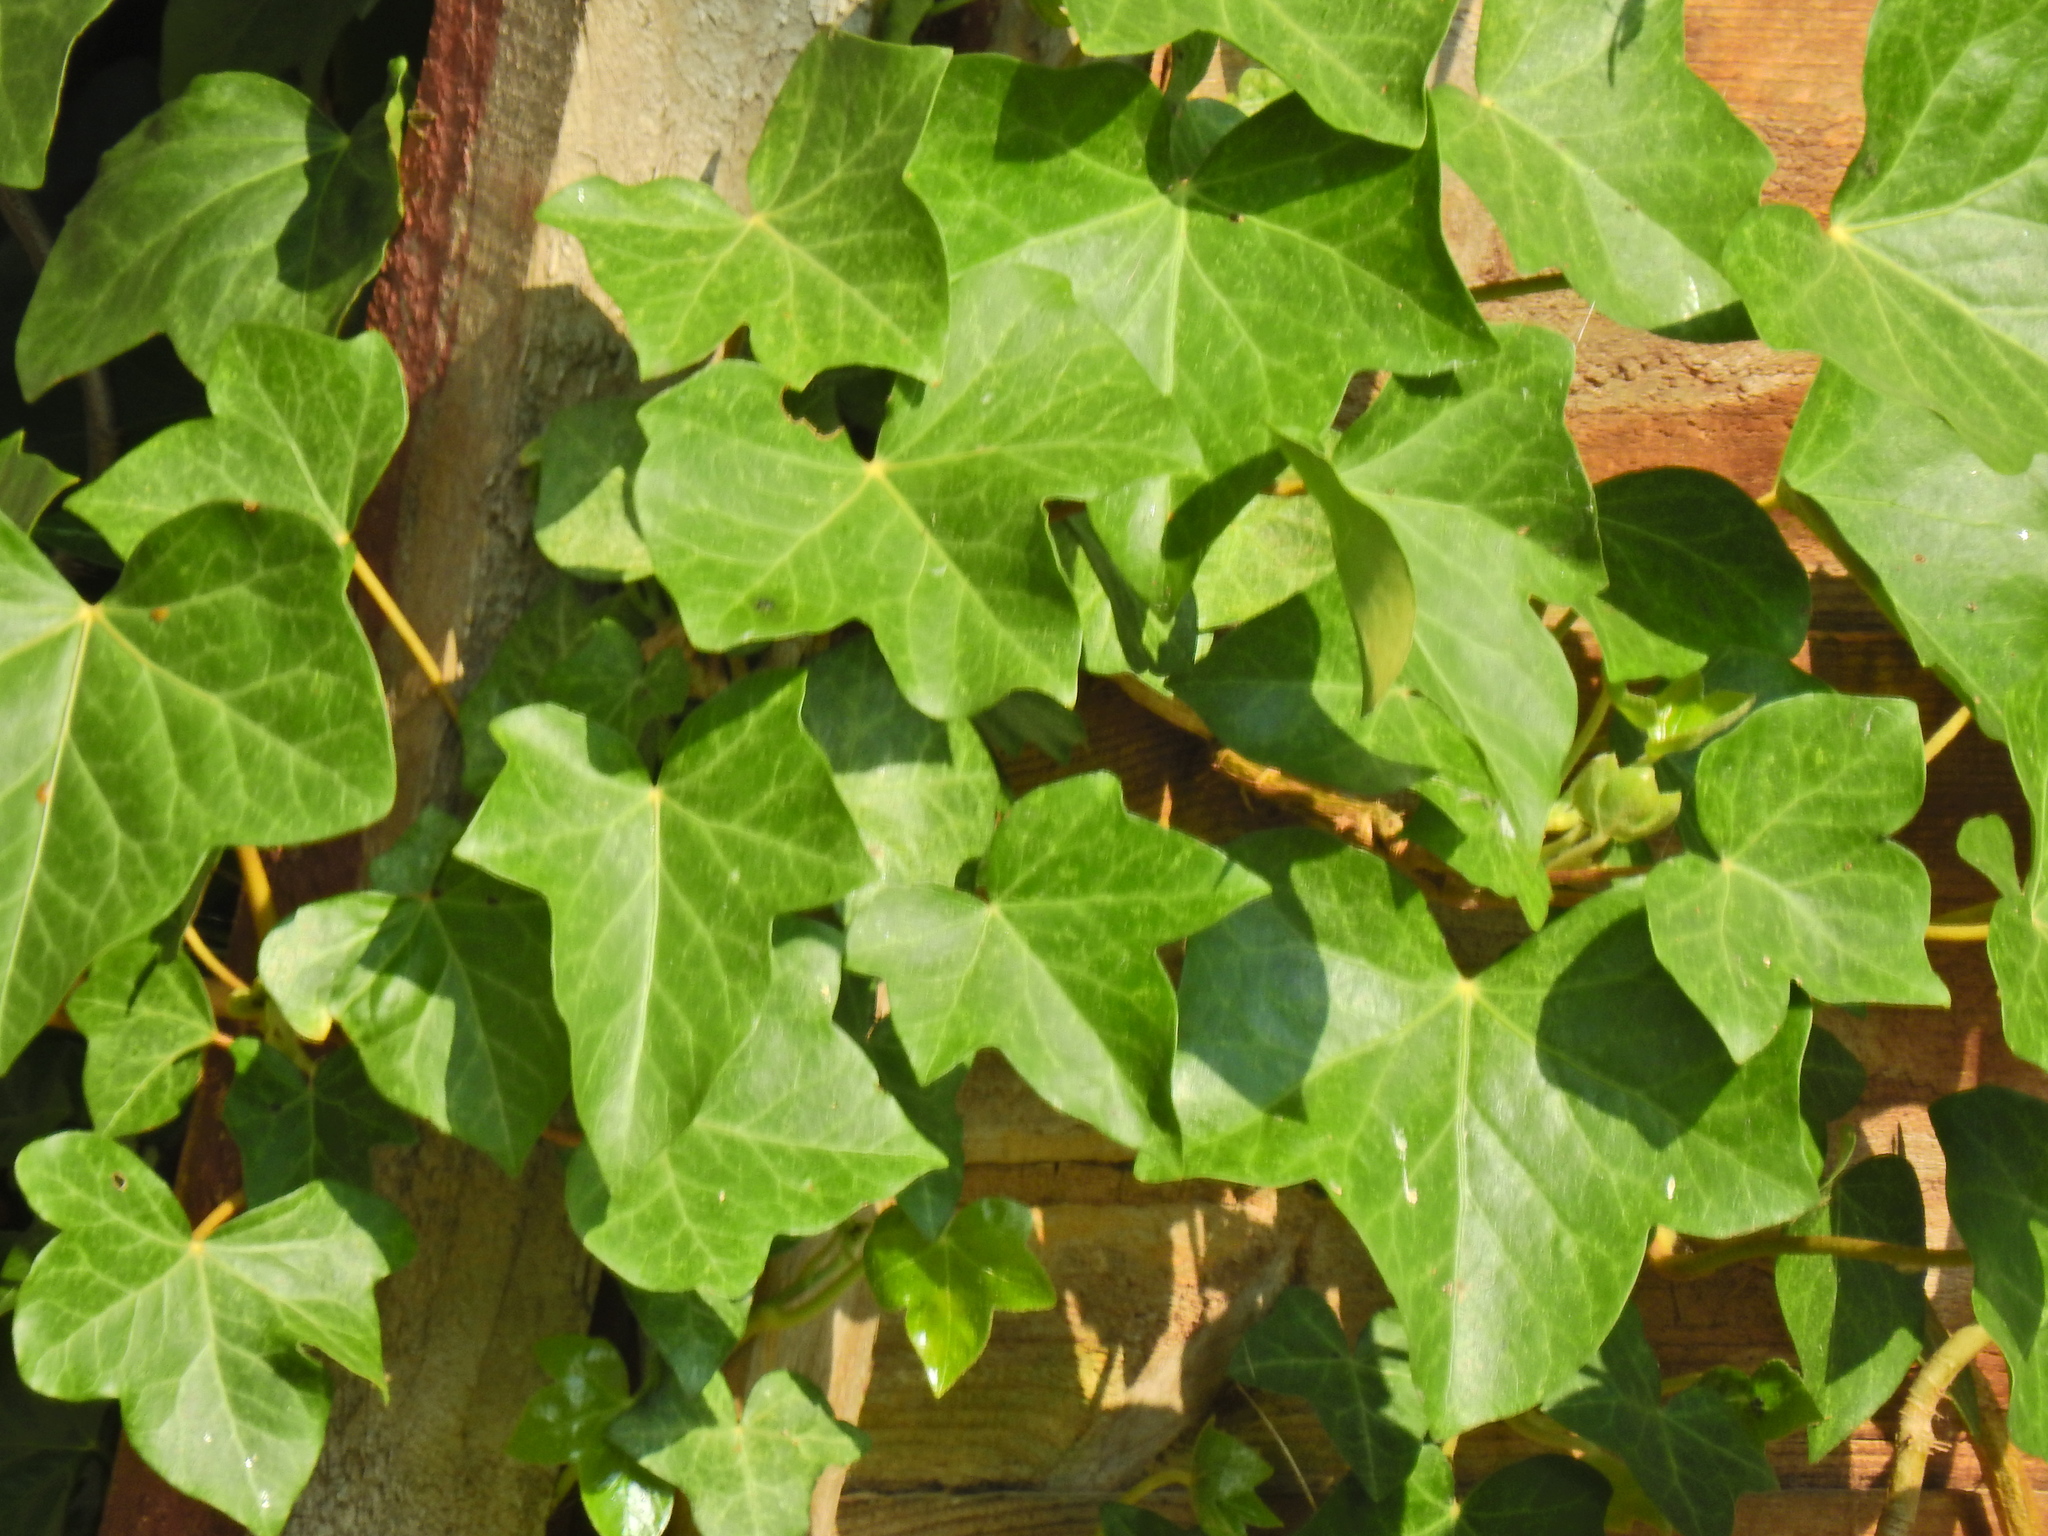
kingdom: Plantae
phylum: Tracheophyta
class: Magnoliopsida
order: Apiales
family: Araliaceae
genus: Hedera
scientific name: Hedera helix
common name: Ivy
